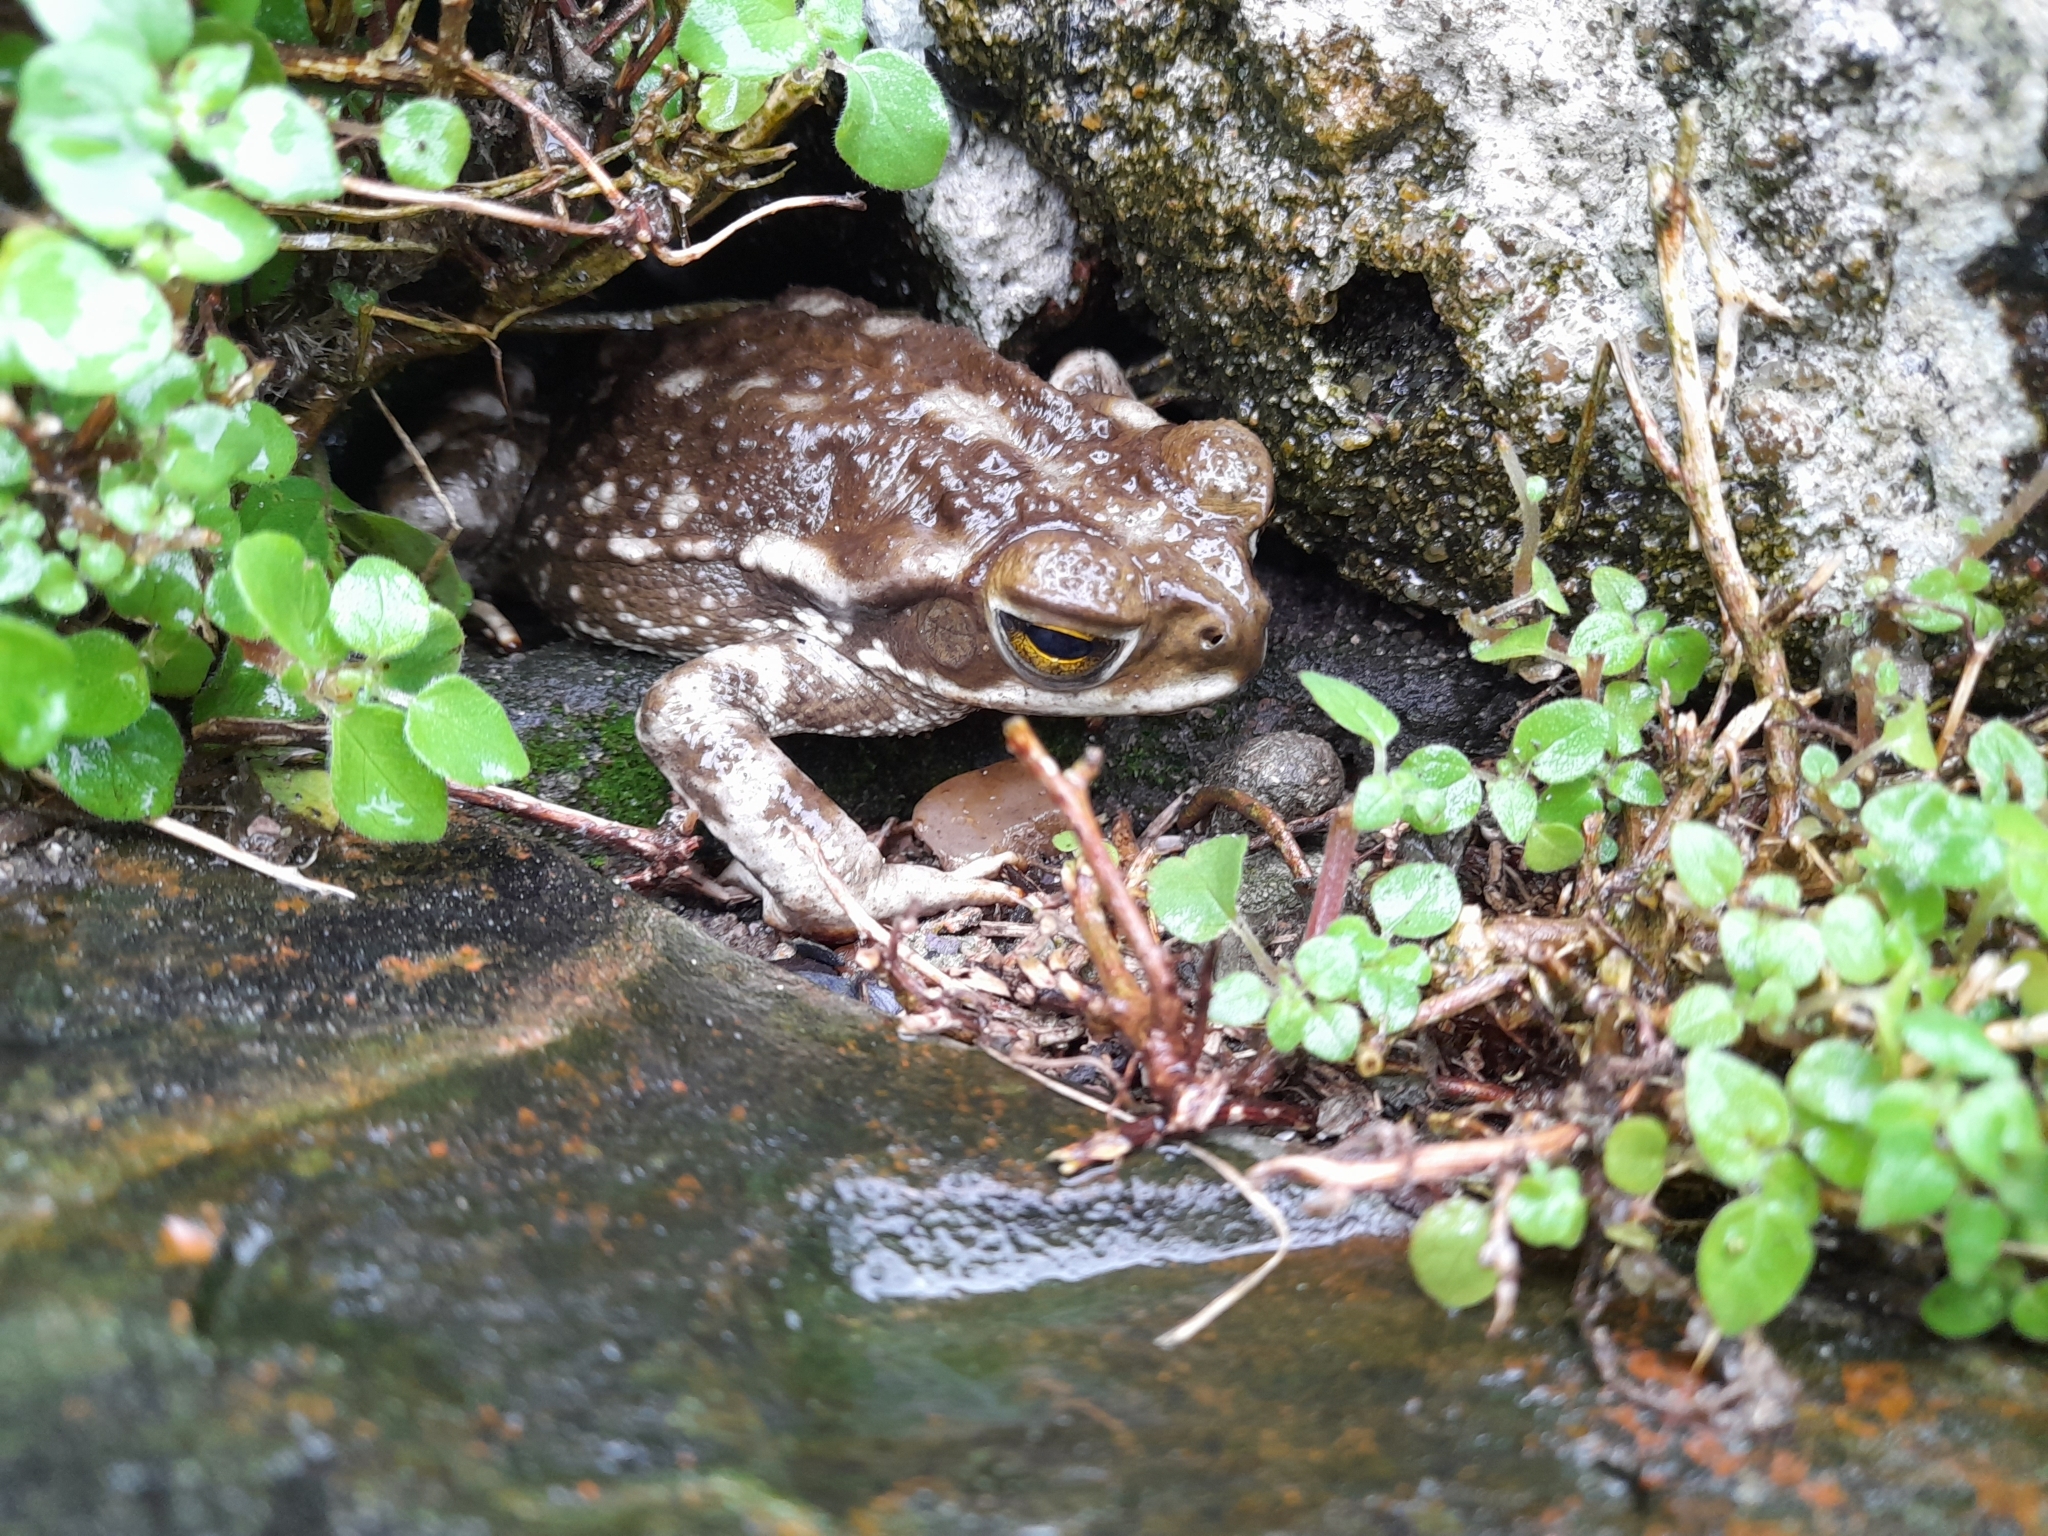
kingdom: Animalia
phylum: Chordata
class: Amphibia
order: Anura
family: Bufonidae
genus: Rhinella
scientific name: Rhinella arenarum
